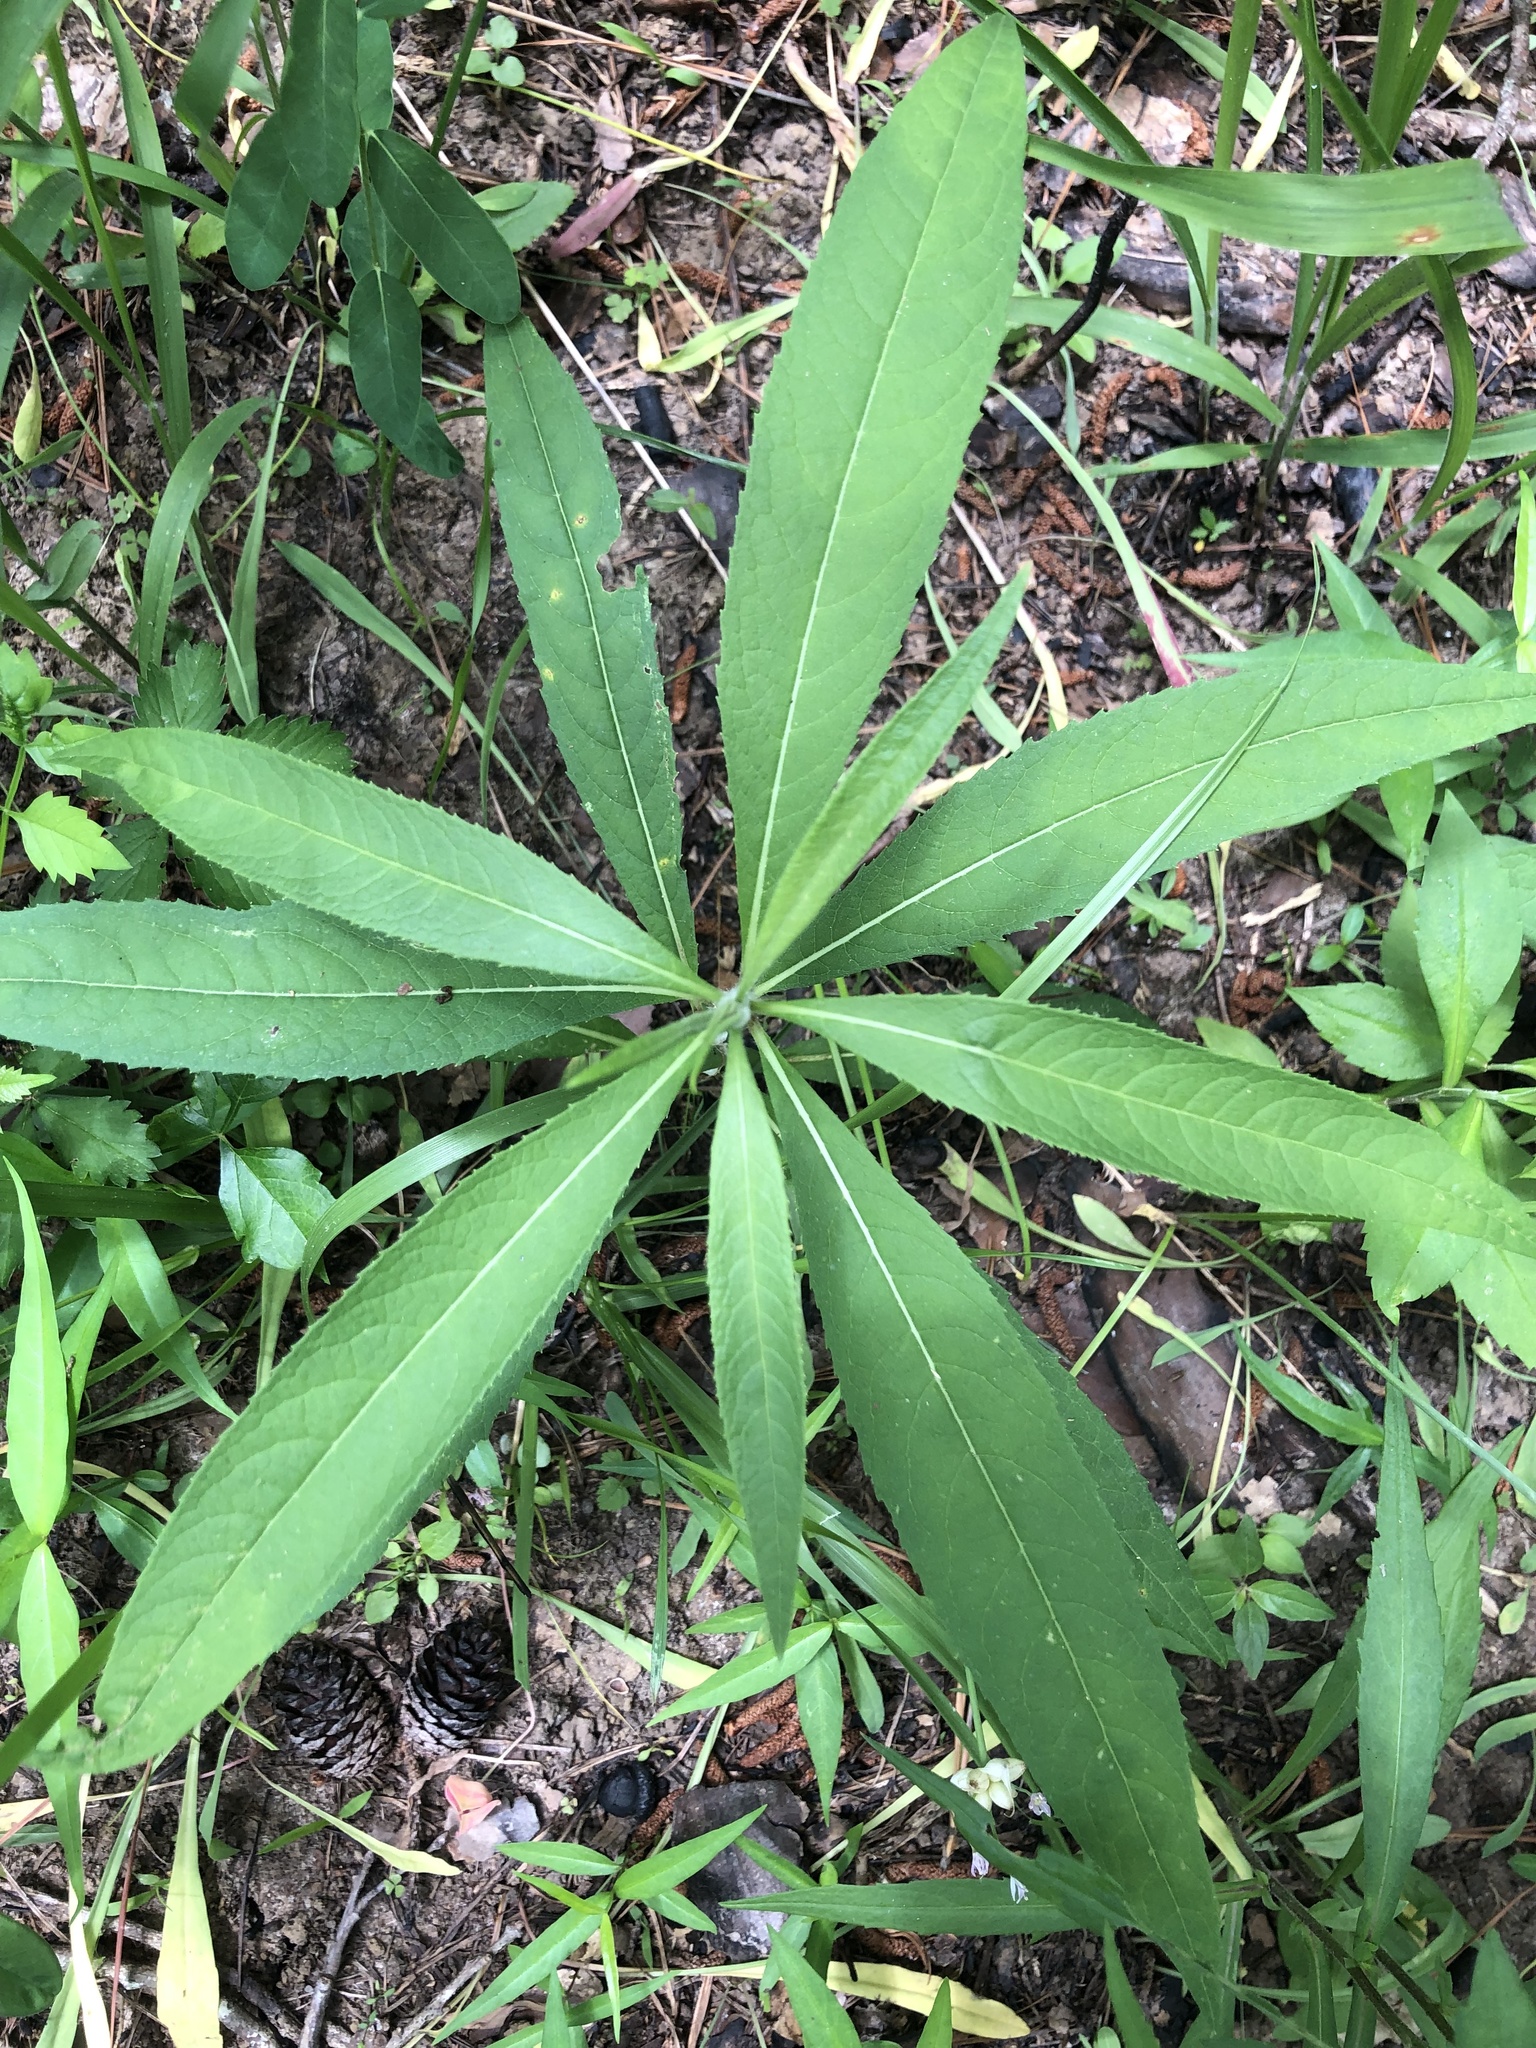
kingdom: Plantae
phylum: Tracheophyta
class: Magnoliopsida
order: Asterales
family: Asteraceae
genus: Vernonia
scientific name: Vernonia gigantea
